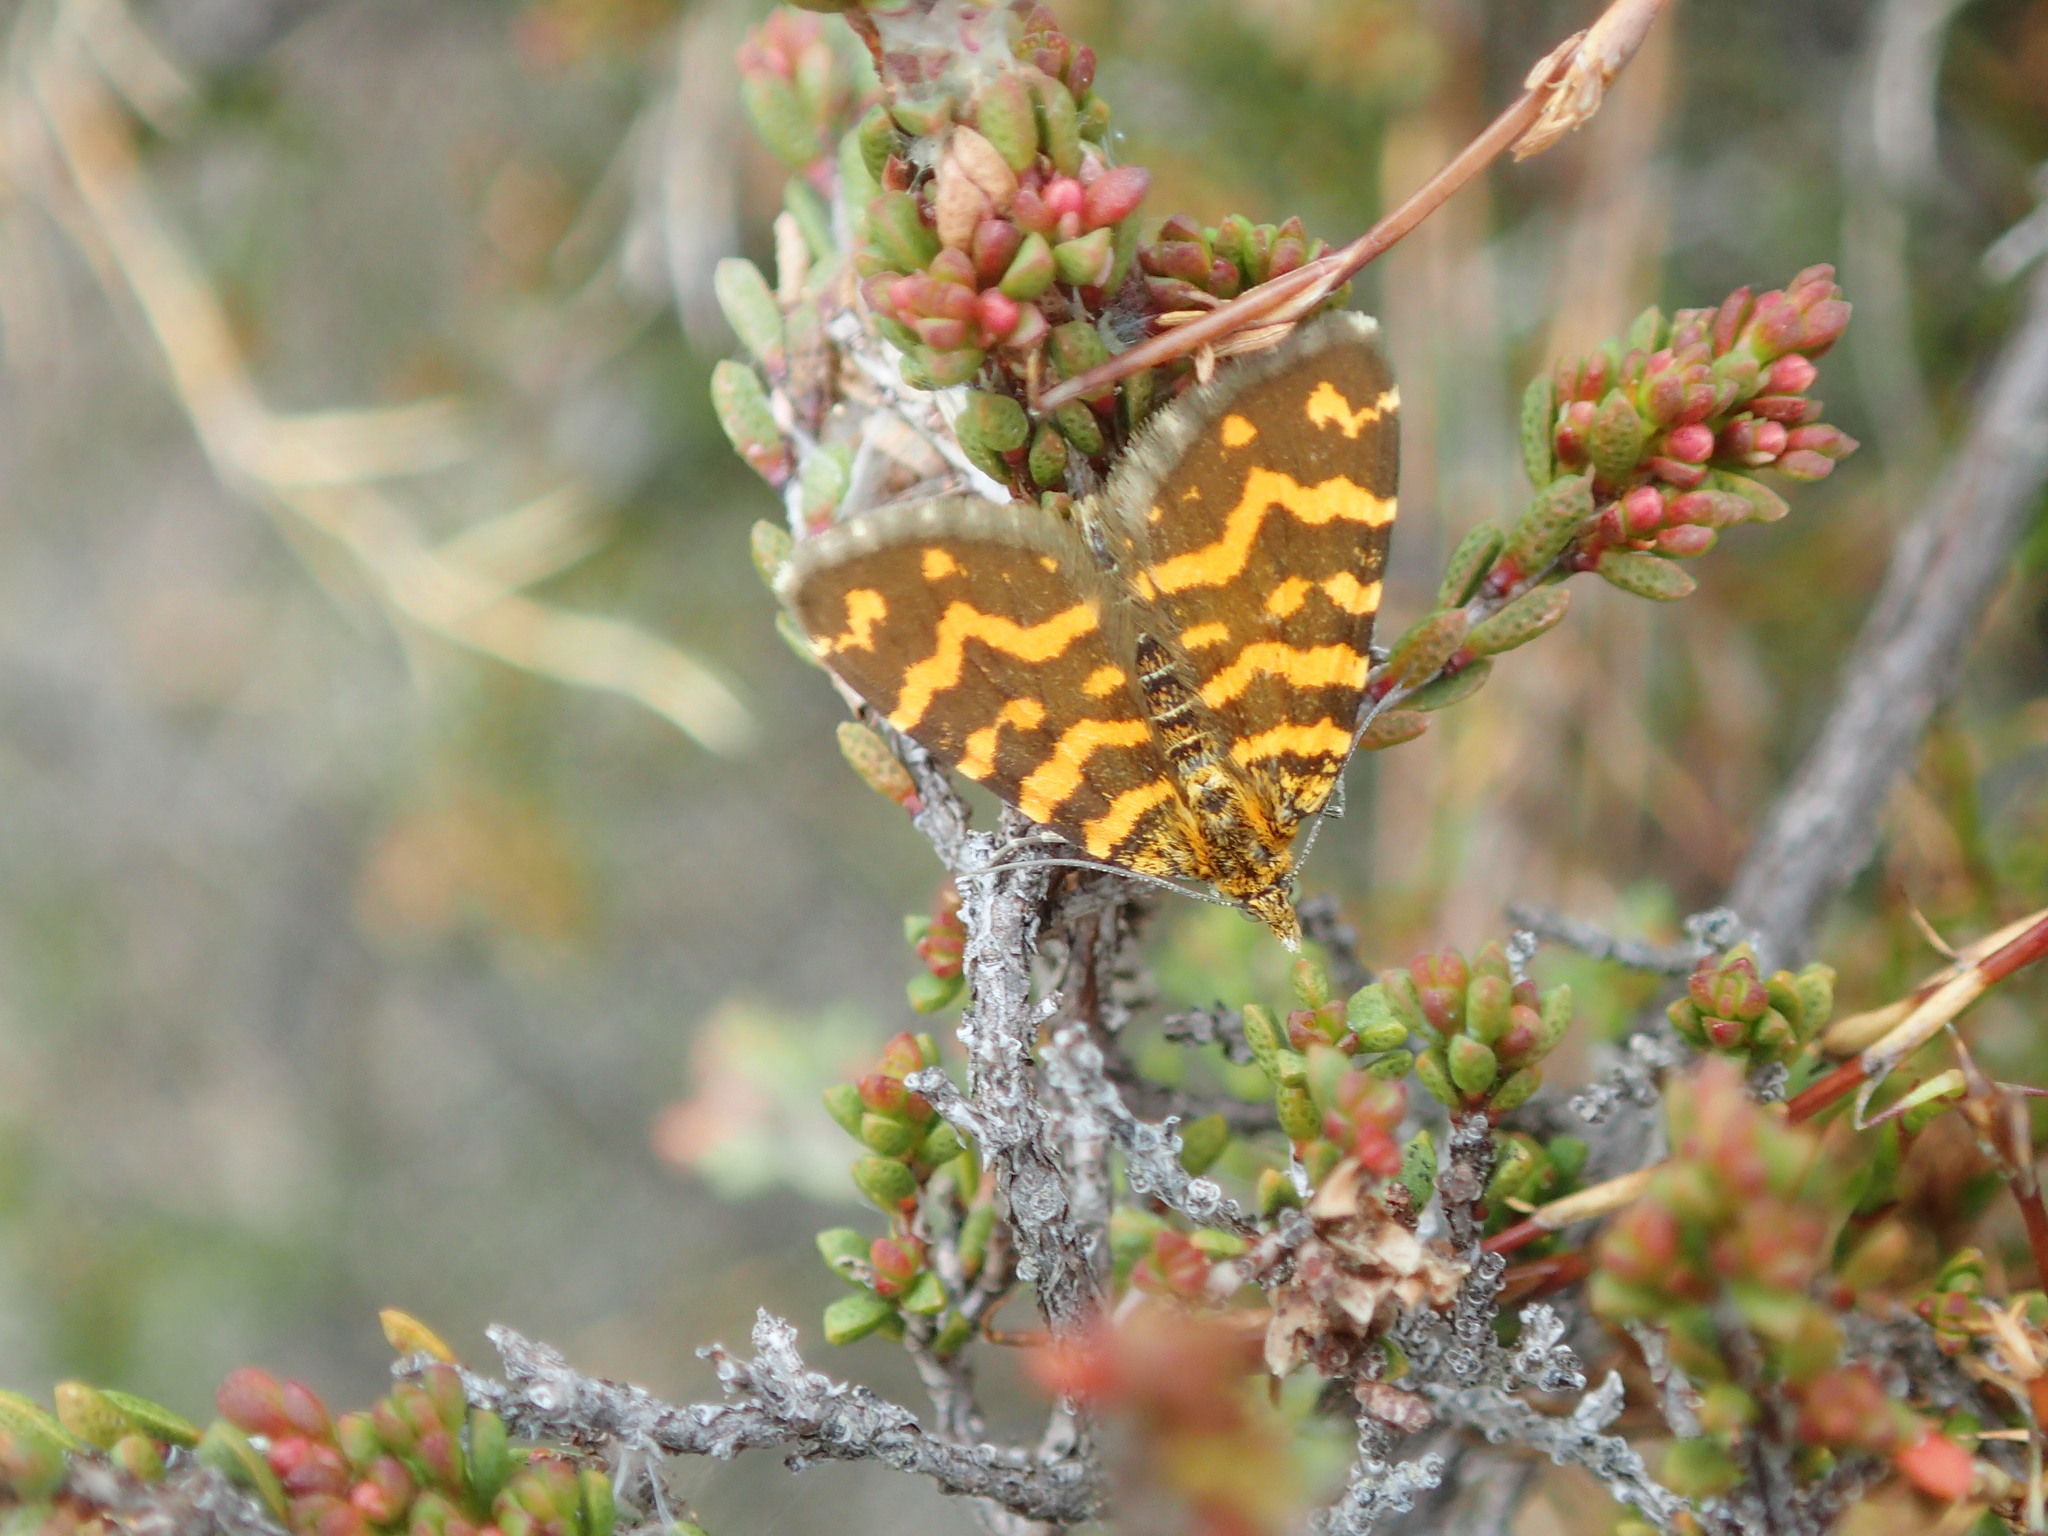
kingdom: Animalia
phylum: Arthropoda
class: Insecta
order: Lepidoptera
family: Geometridae
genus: Chrysolarentia
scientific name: Chrysolarentia chrysocyma
